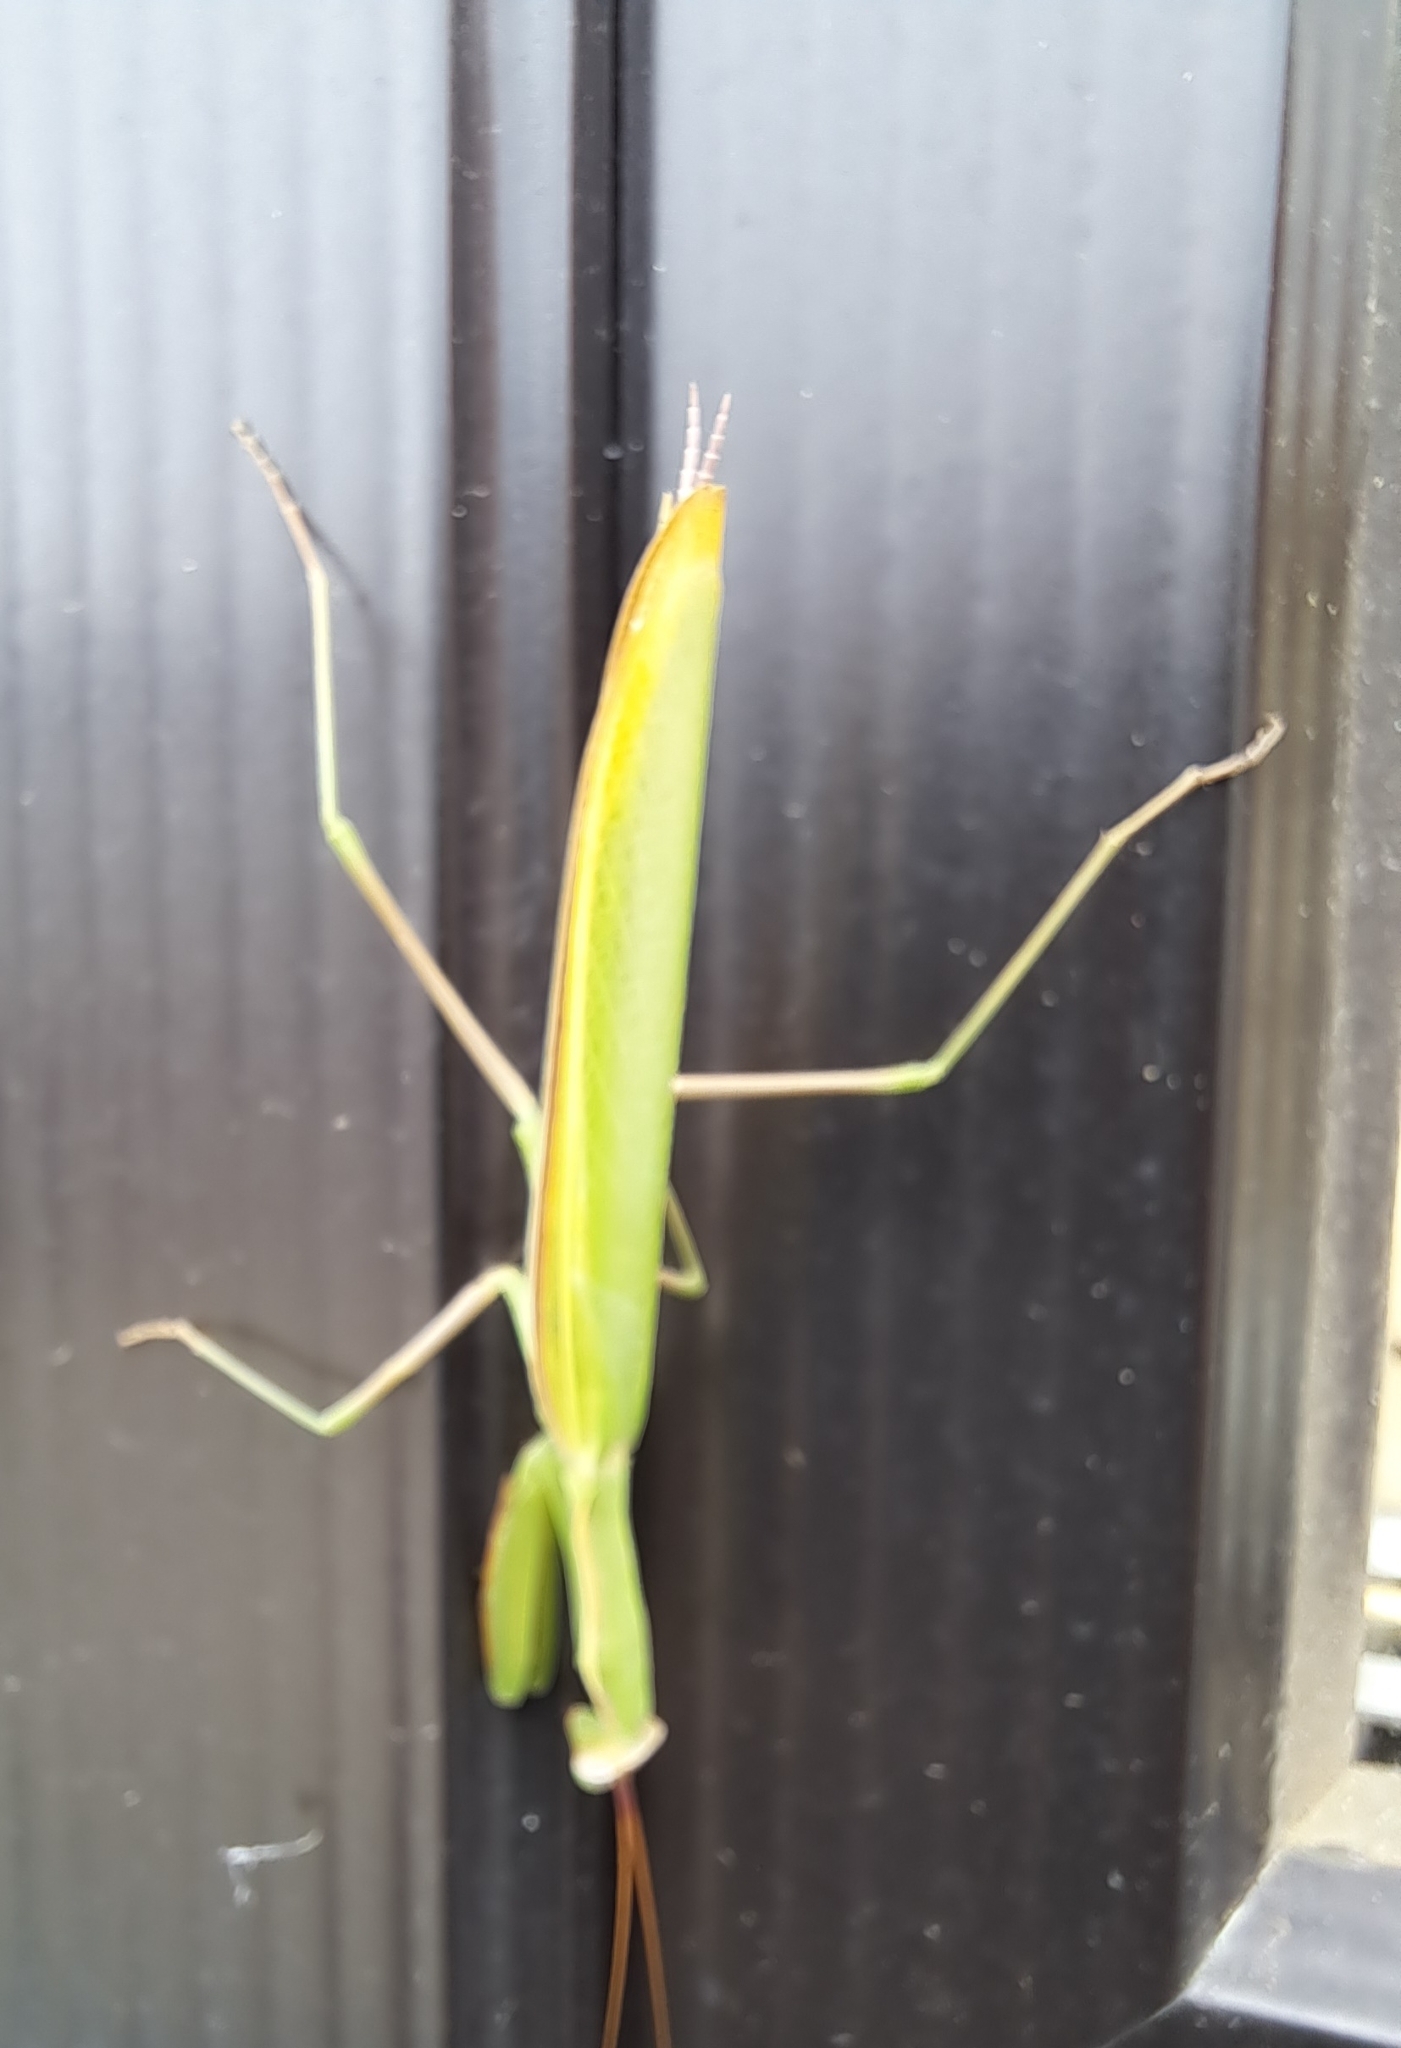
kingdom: Animalia
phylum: Arthropoda
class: Insecta
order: Mantodea
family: Mantidae
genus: Mantis
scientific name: Mantis religiosa
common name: Praying mantis
